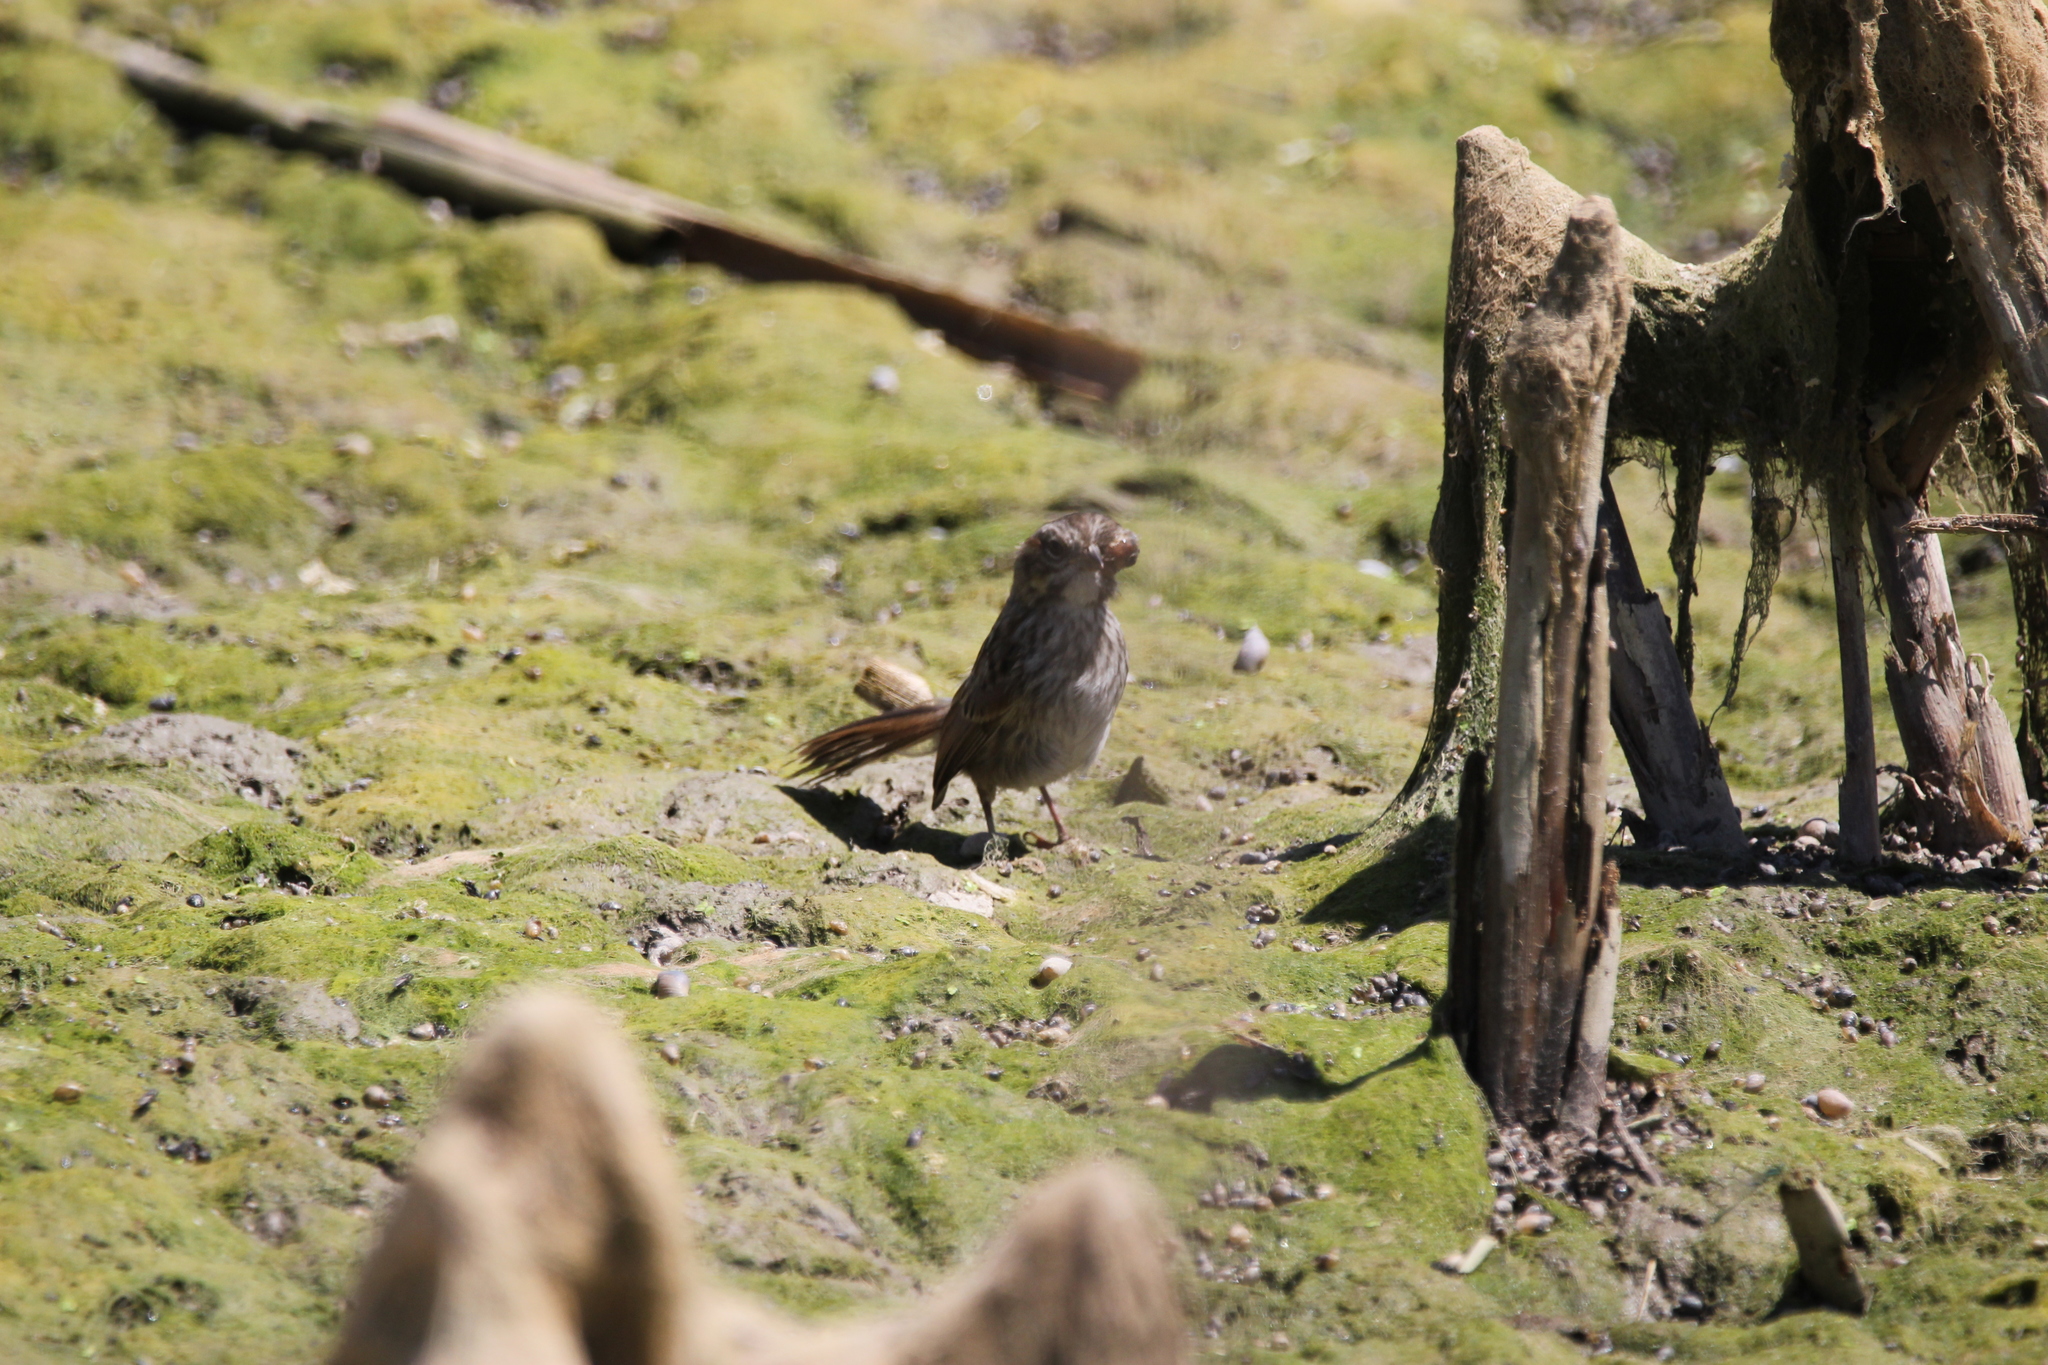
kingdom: Animalia
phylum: Chordata
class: Aves
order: Passeriformes
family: Passerellidae
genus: Melospiza
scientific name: Melospiza melodia
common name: Song sparrow
